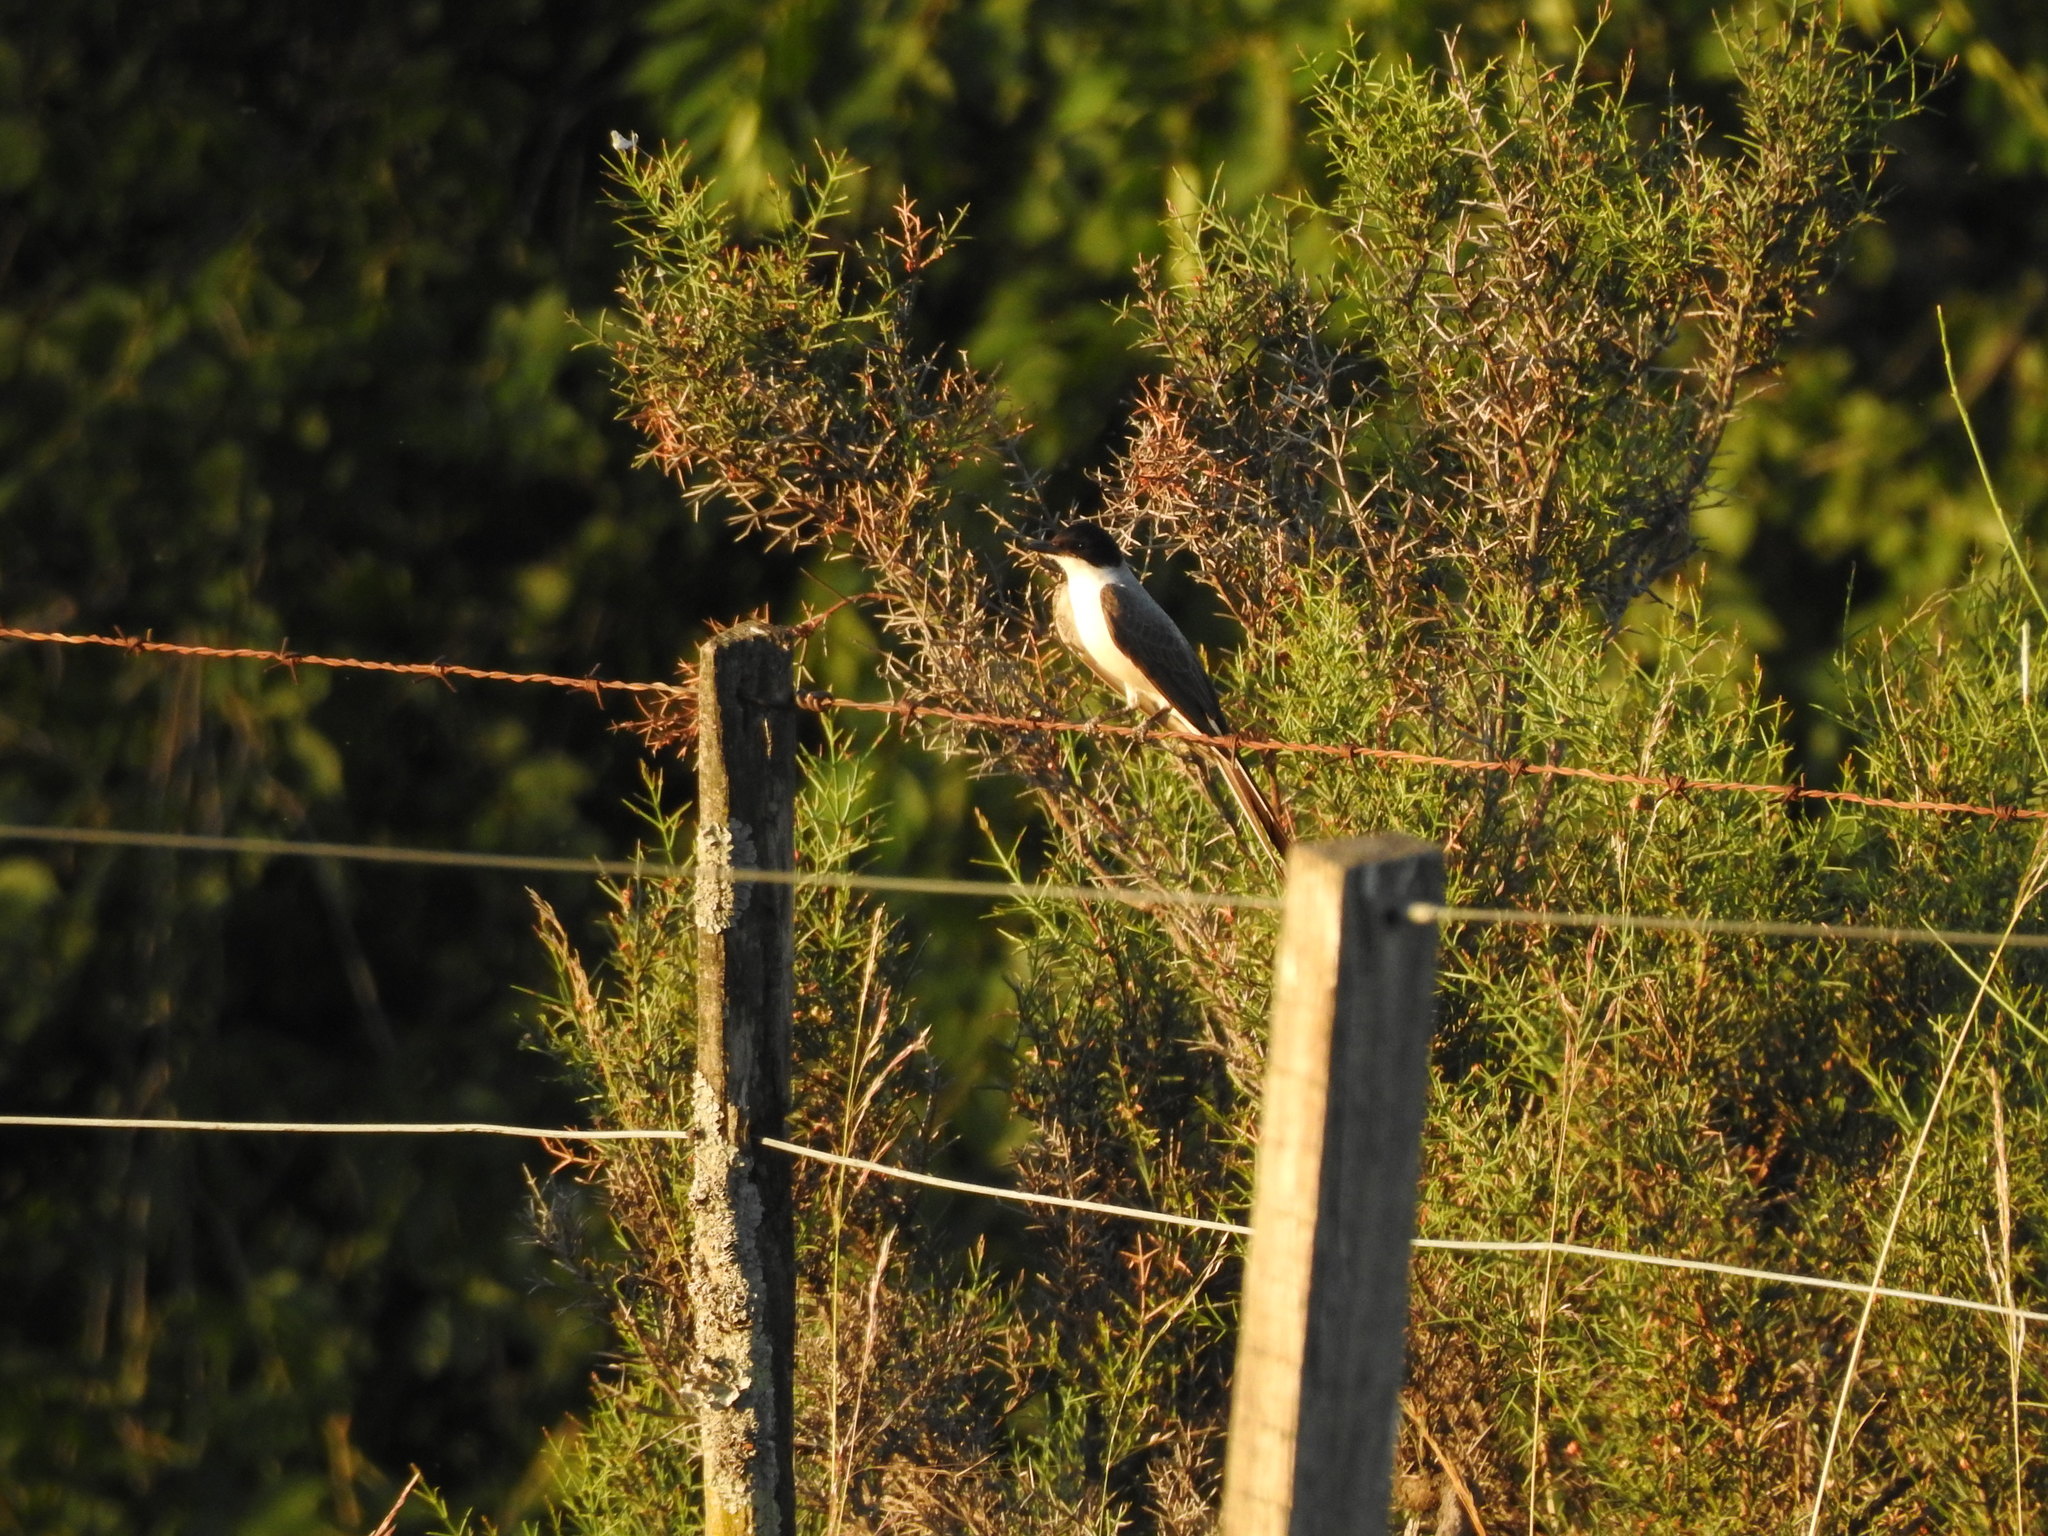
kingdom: Animalia
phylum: Chordata
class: Aves
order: Passeriformes
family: Tyrannidae
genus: Tyrannus
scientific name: Tyrannus savana
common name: Fork-tailed flycatcher
